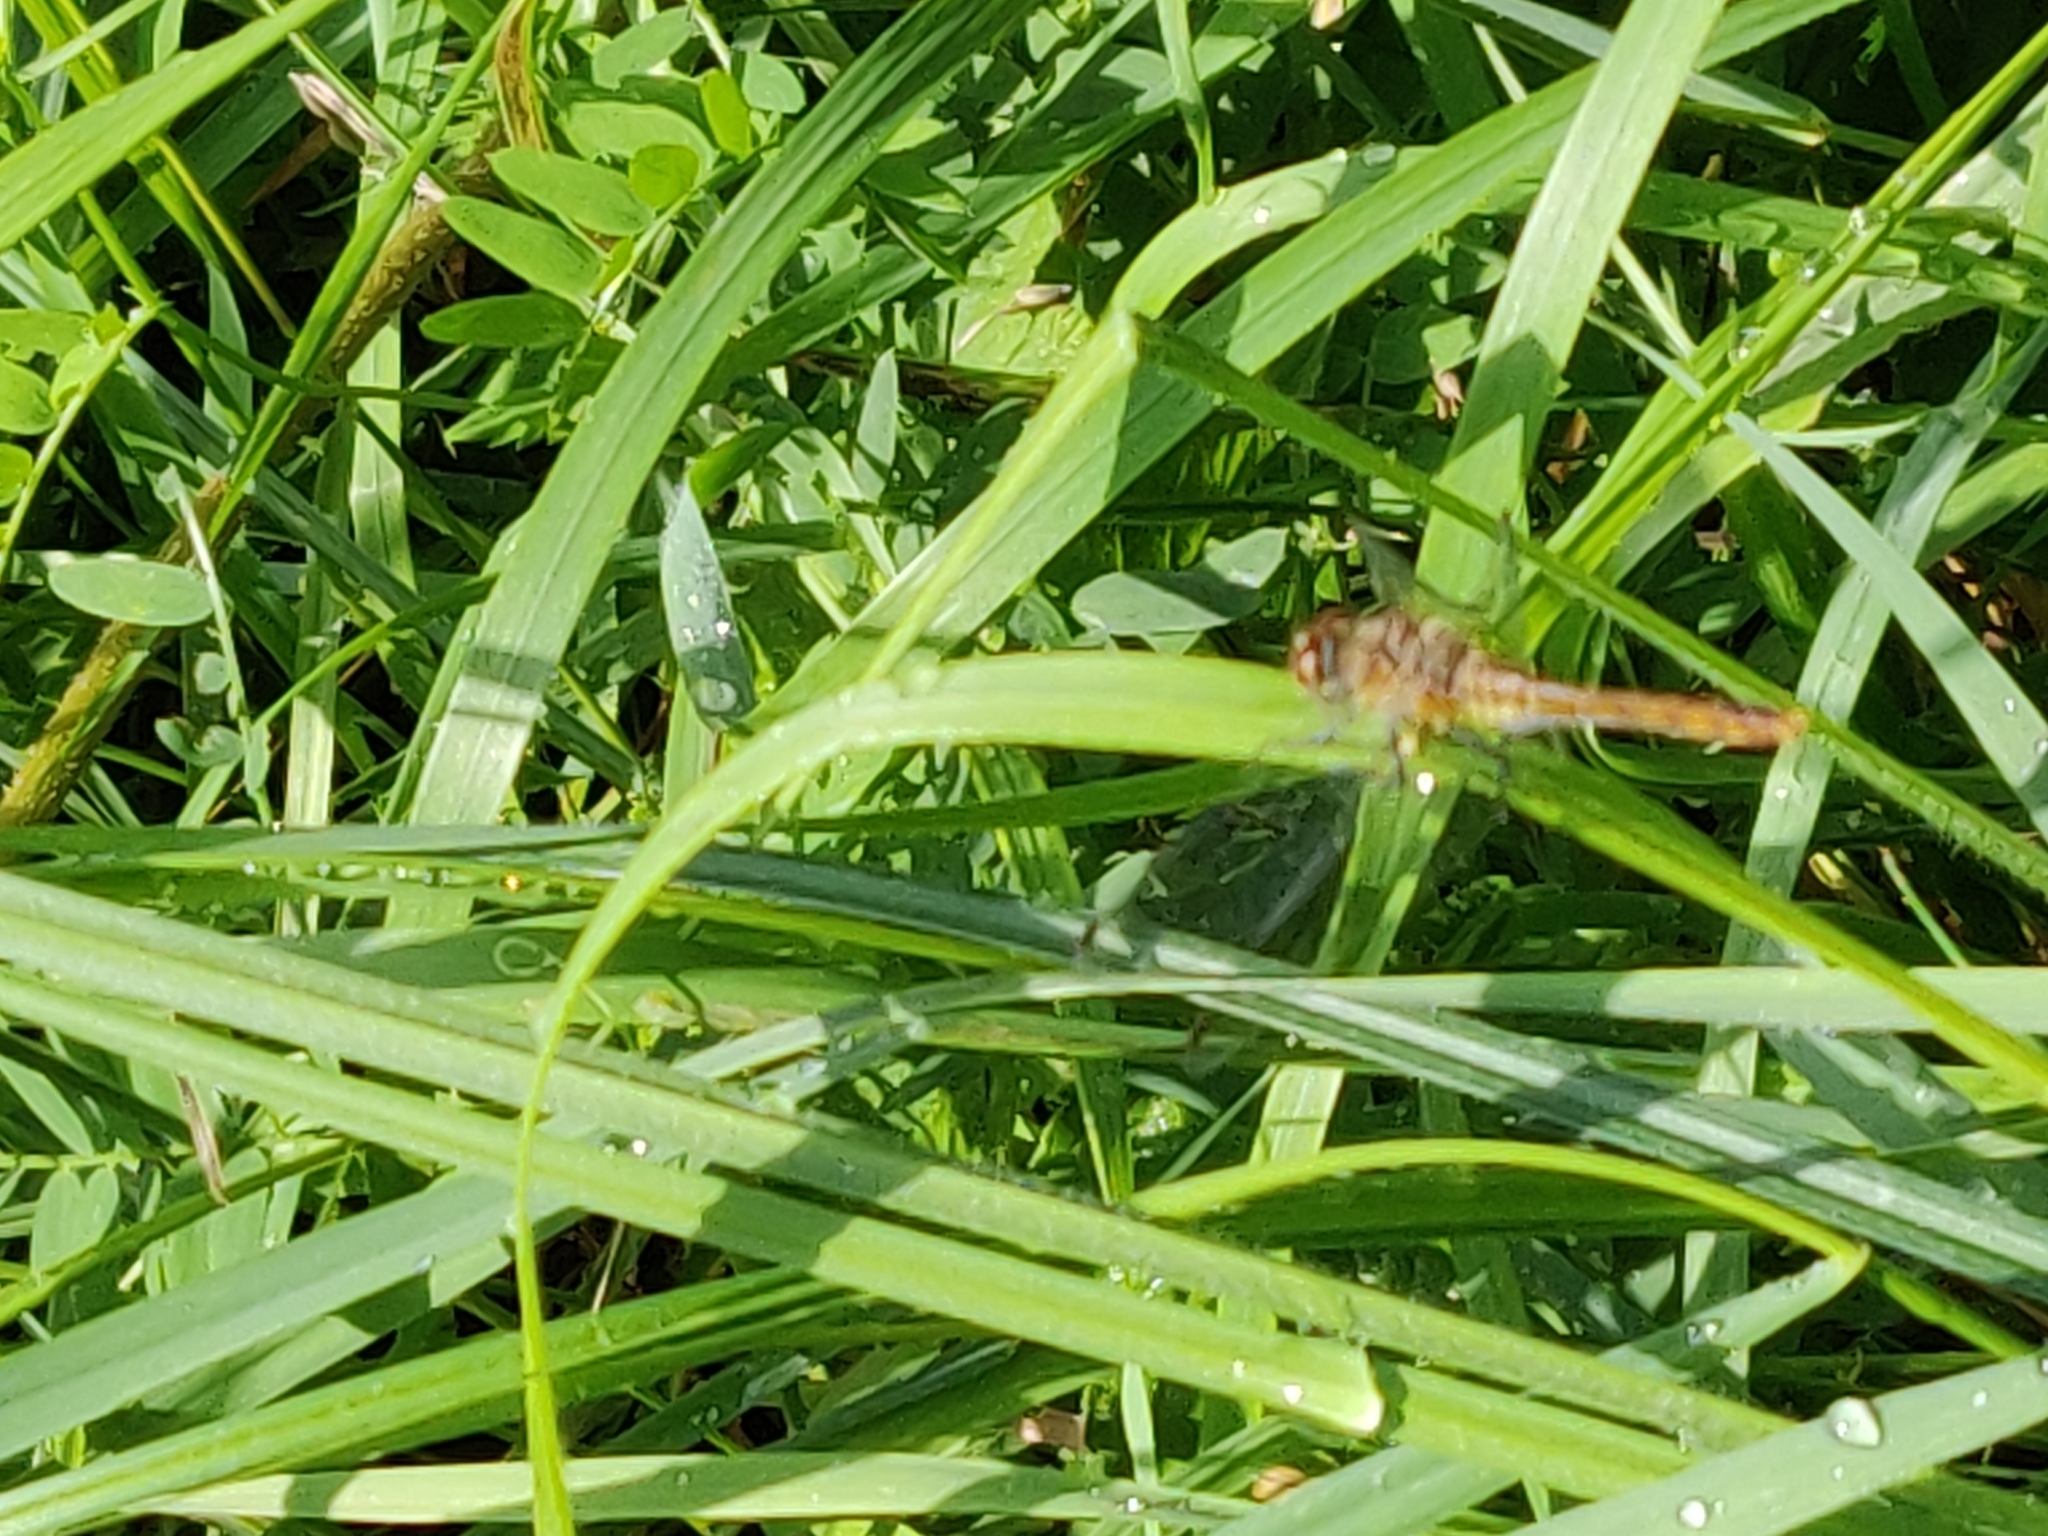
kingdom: Animalia
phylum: Arthropoda
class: Insecta
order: Odonata
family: Libellulidae
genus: Sympetrum
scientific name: Sympetrum sanguineum
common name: Ruddy darter
